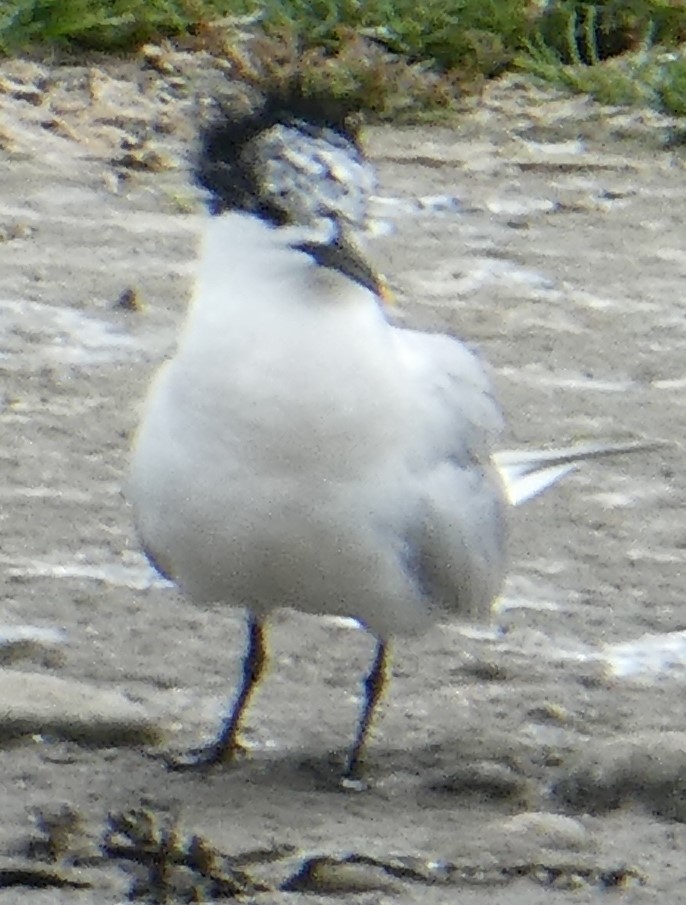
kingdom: Animalia
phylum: Chordata
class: Aves
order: Charadriiformes
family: Laridae
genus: Thalasseus
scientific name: Thalasseus sandvicensis
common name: Sandwich tern
